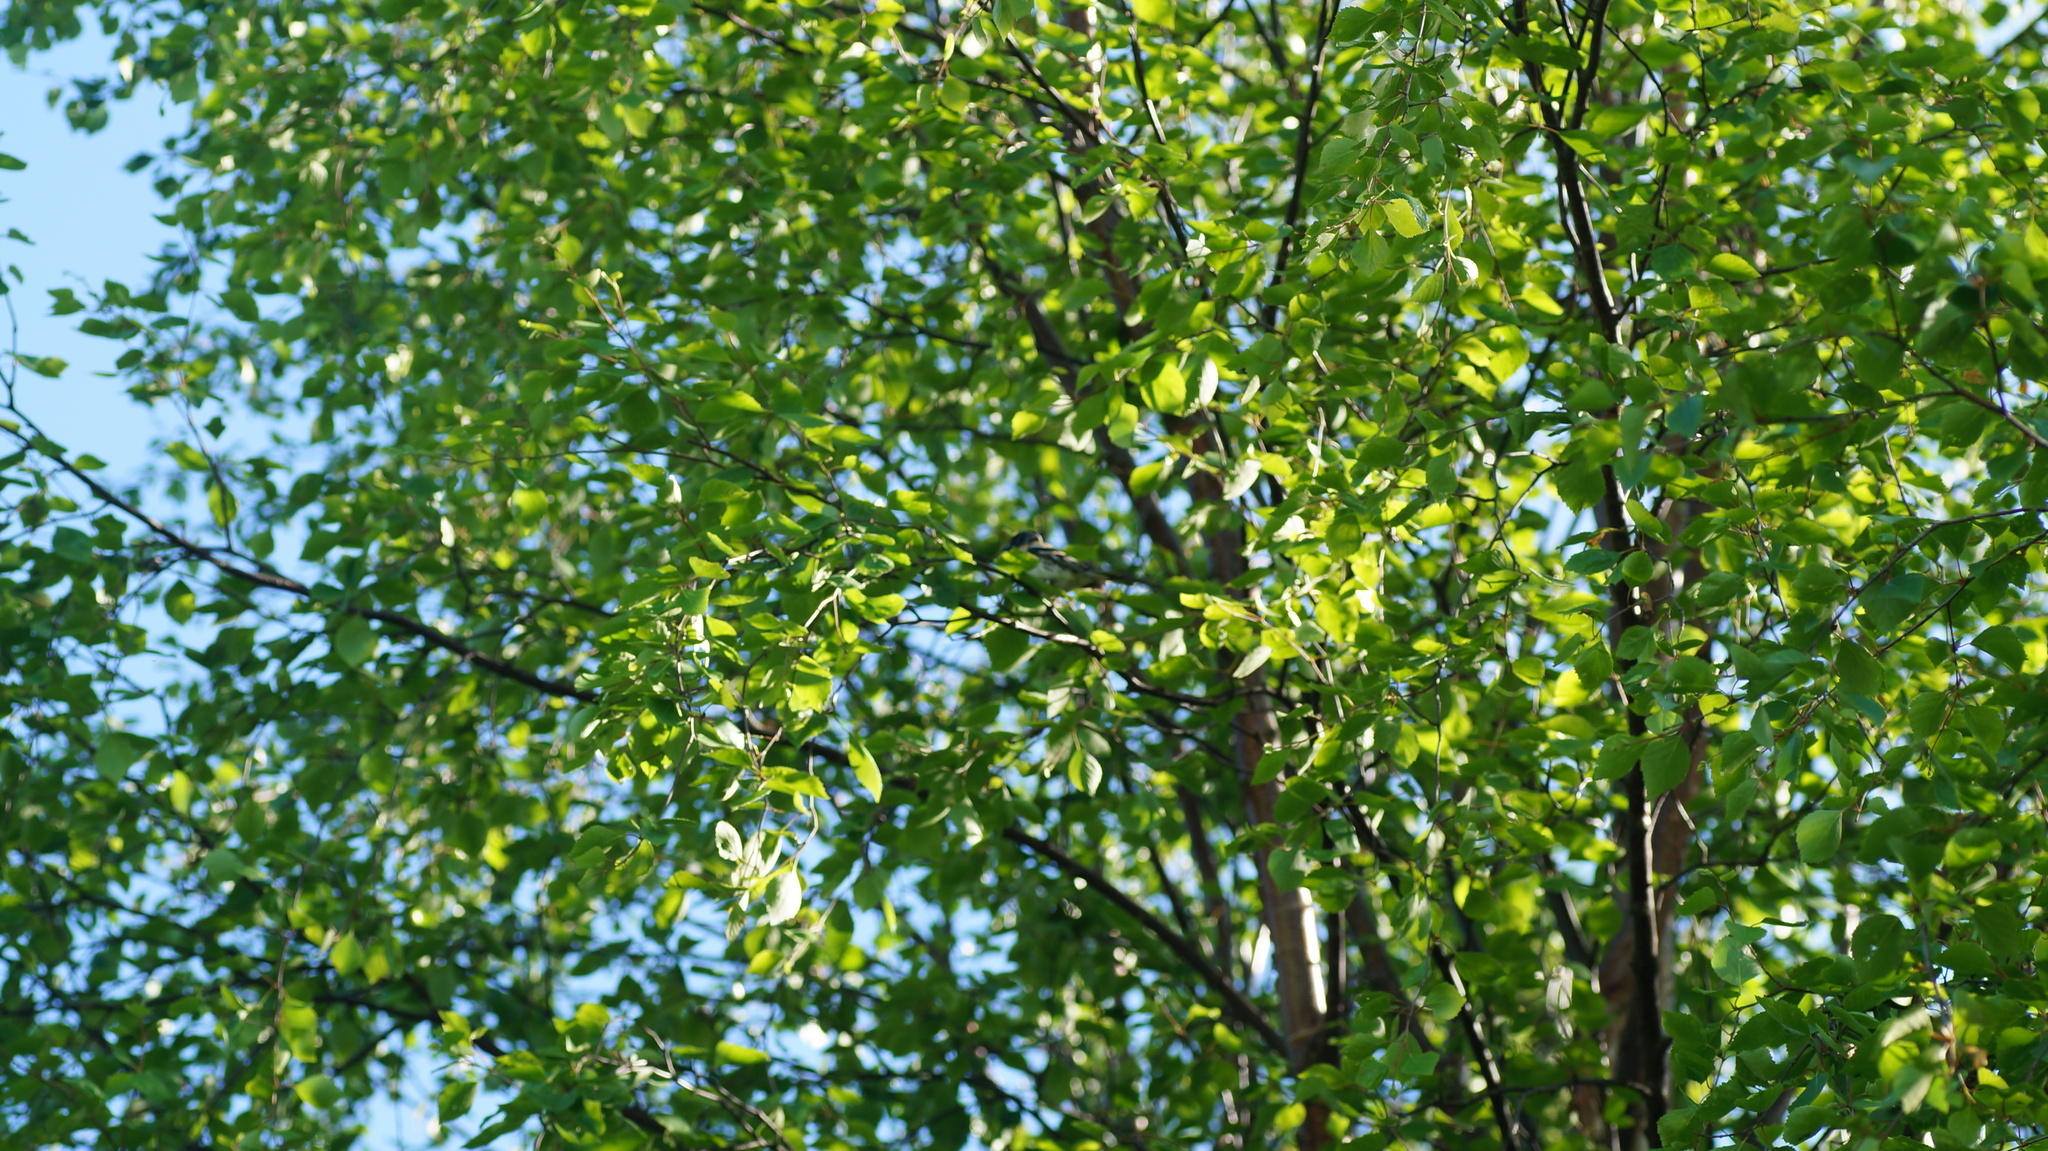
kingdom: Animalia
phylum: Chordata
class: Aves
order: Passeriformes
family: Fringillidae
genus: Fringilla
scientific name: Fringilla montifringilla
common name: Brambling
